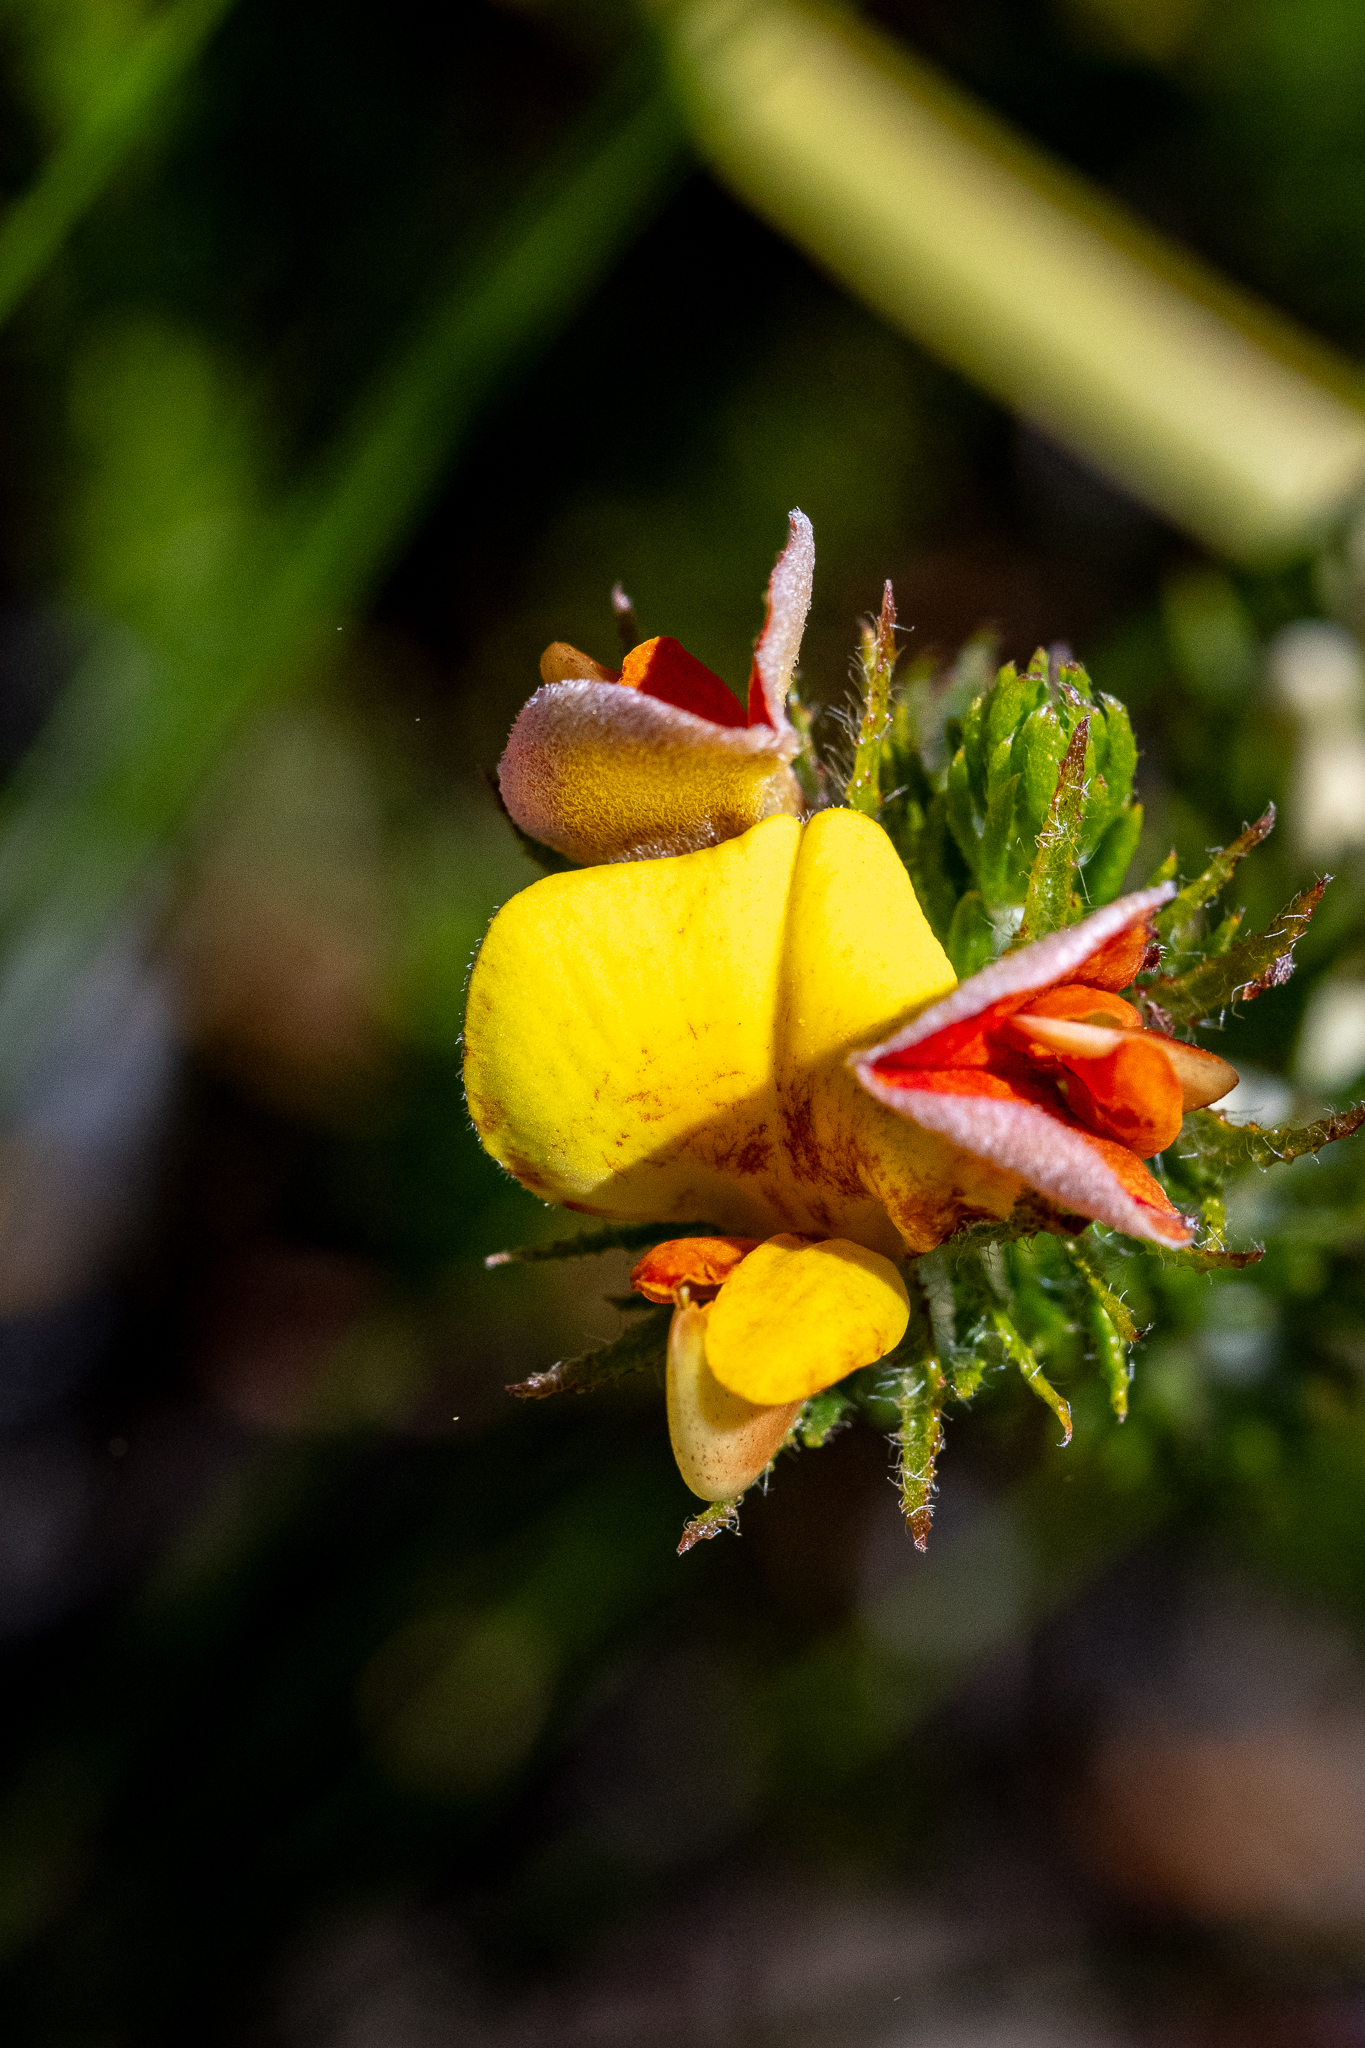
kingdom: Plantae
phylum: Tracheophyta
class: Magnoliopsida
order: Fabales
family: Fabaceae
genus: Aspalathus
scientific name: Aspalathus ciliaris
